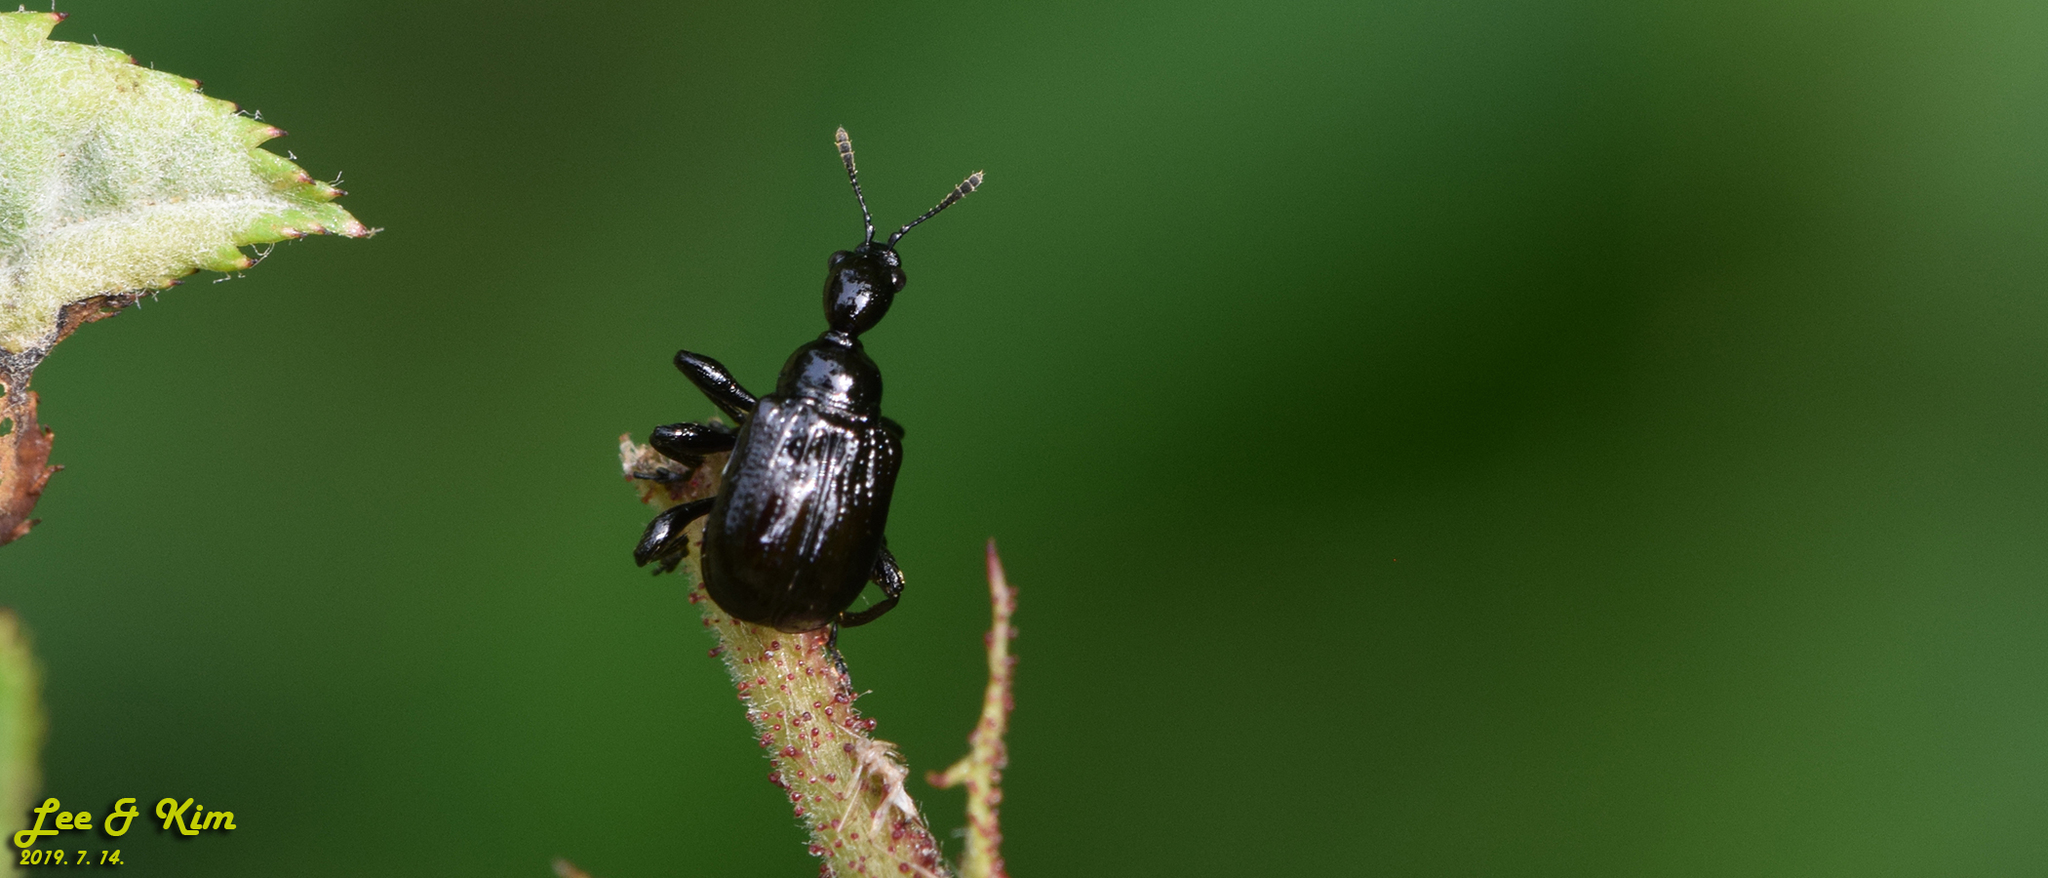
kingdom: Animalia
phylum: Arthropoda
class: Insecta
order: Coleoptera
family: Attelabidae
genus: Compsapoderus
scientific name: Compsapoderus erythropterus
